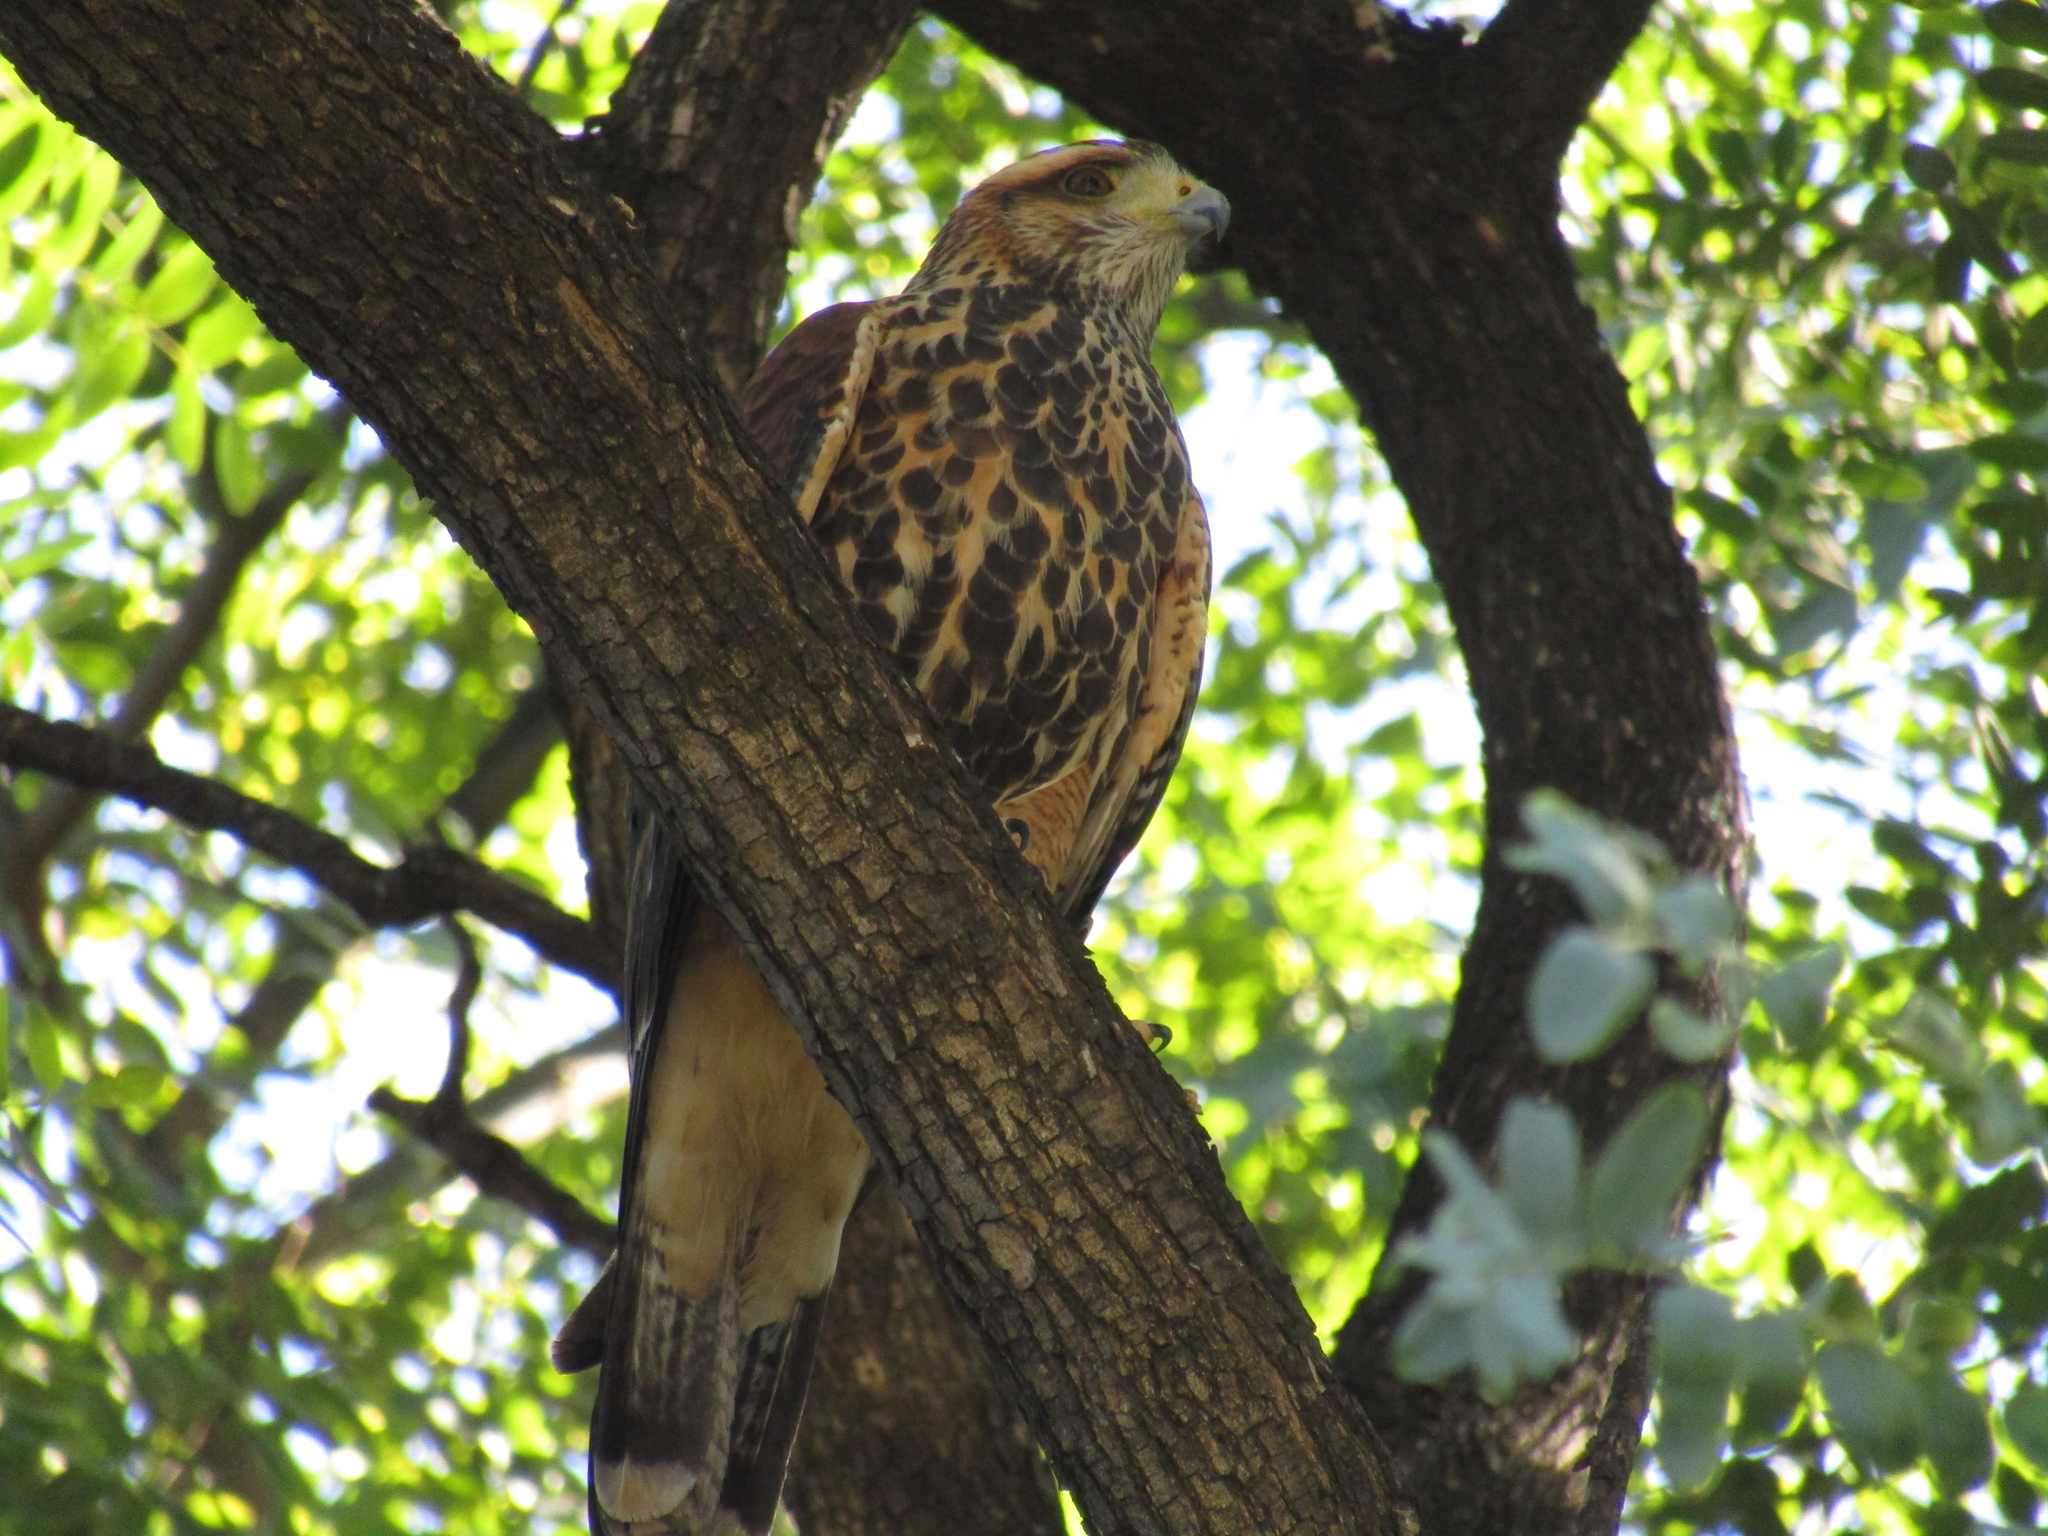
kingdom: Animalia
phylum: Chordata
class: Aves
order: Accipitriformes
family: Accipitridae
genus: Parabuteo
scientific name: Parabuteo unicinctus
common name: Harris's hawk
